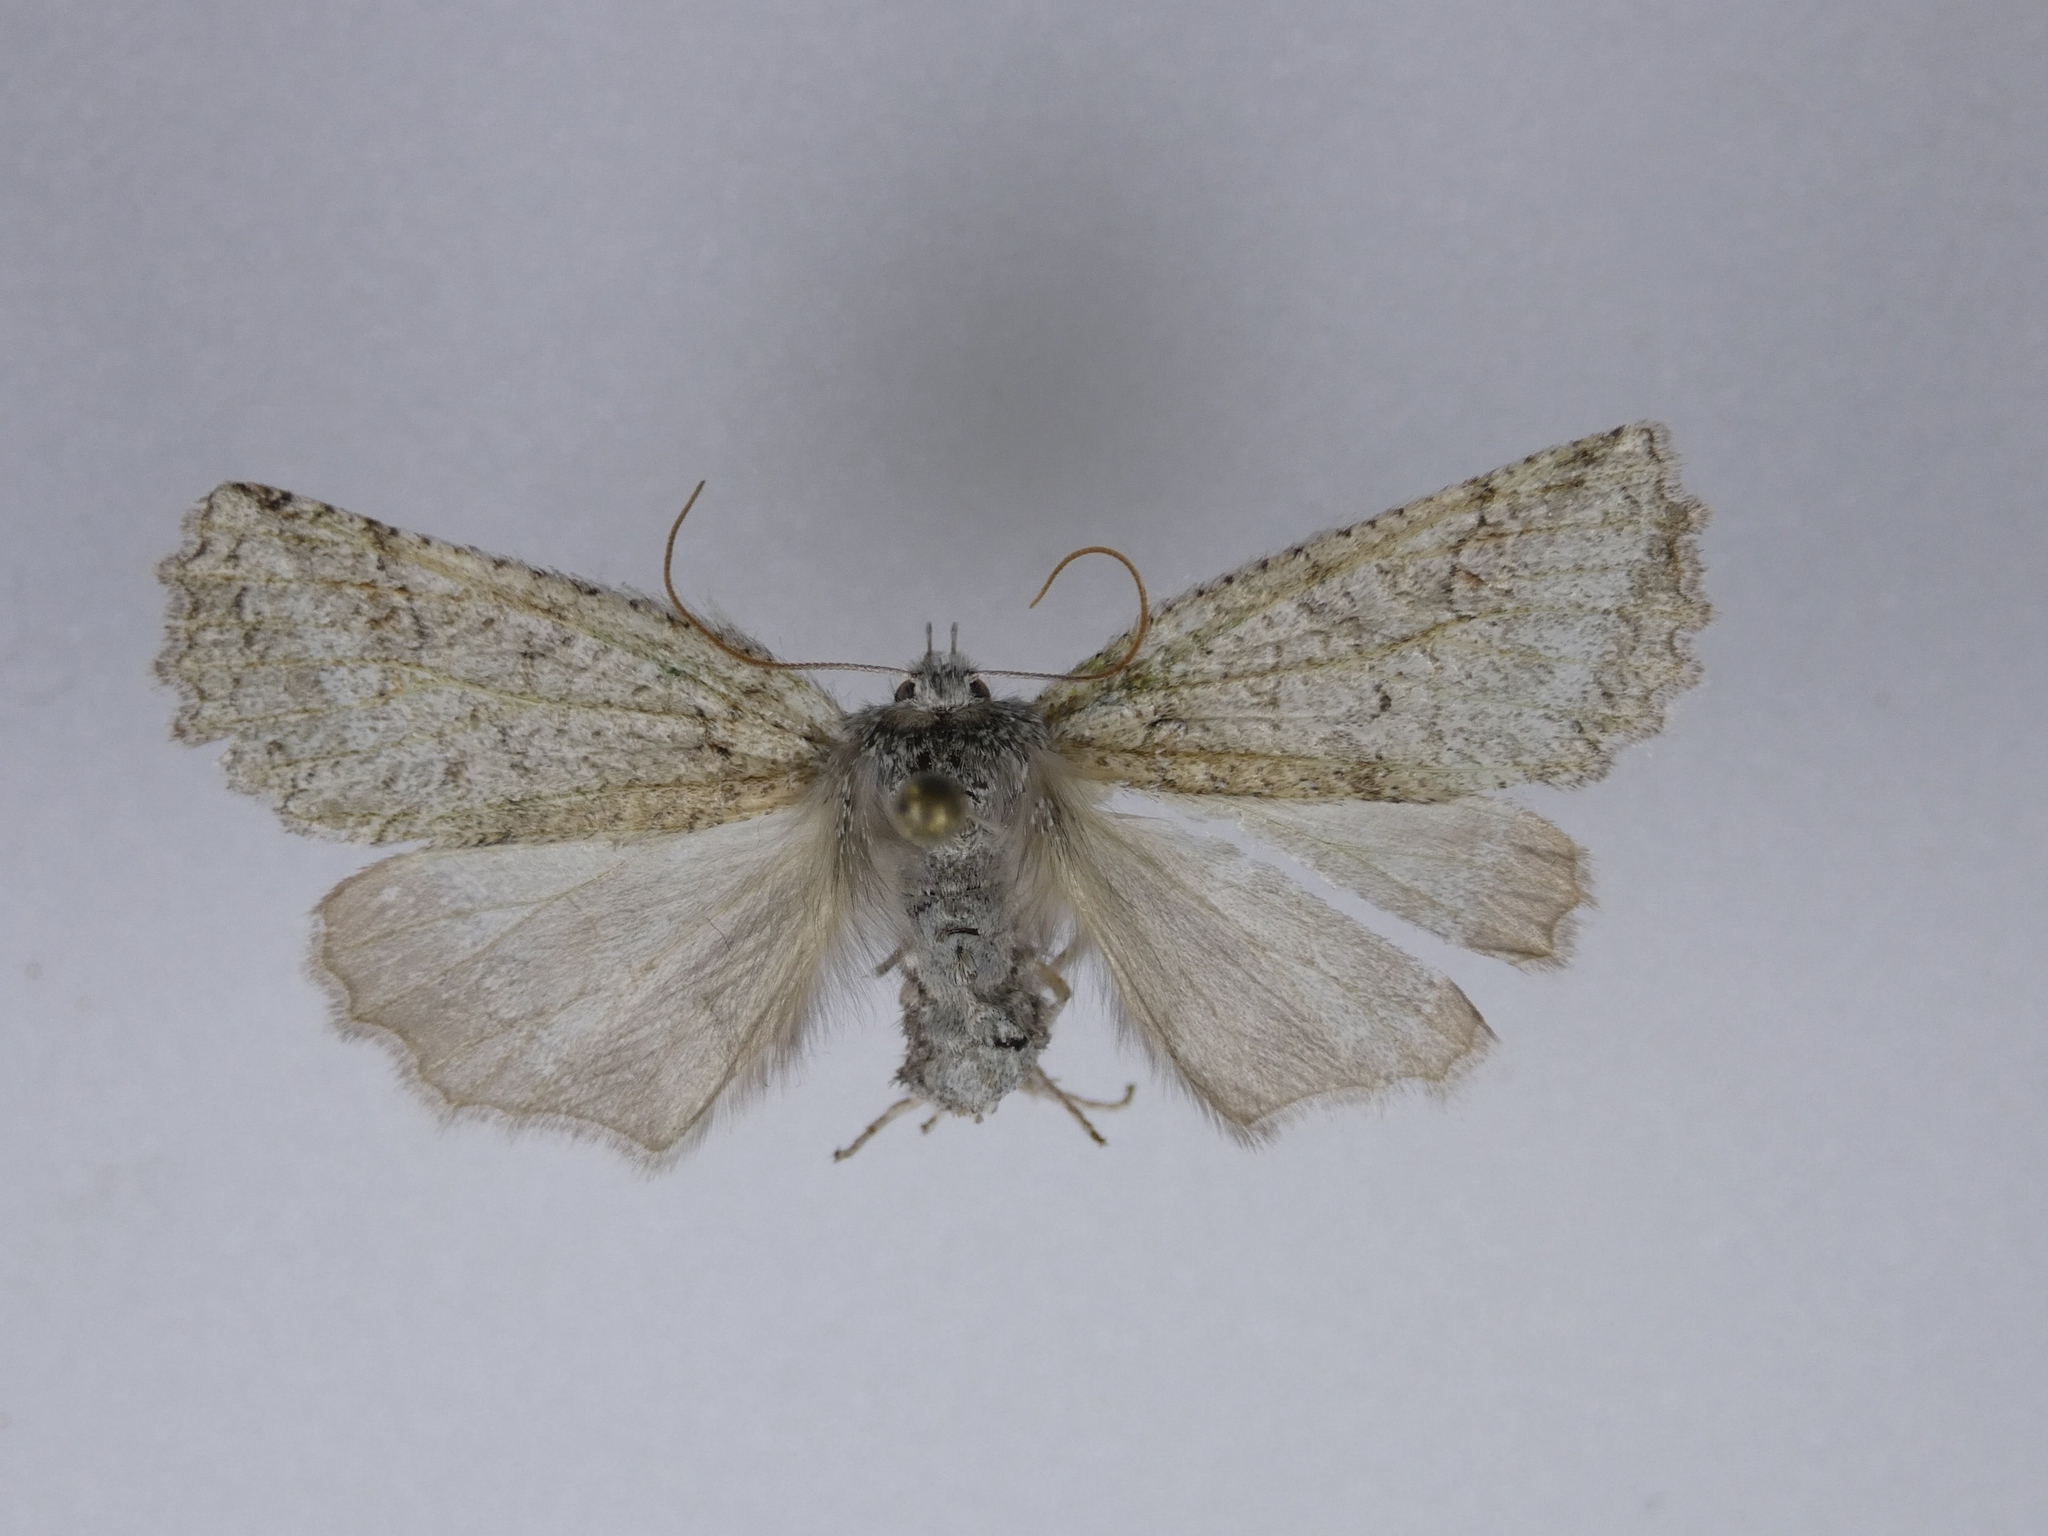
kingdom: Animalia
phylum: Arthropoda
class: Insecta
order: Lepidoptera
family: Geometridae
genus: Declana
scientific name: Declana floccosa
